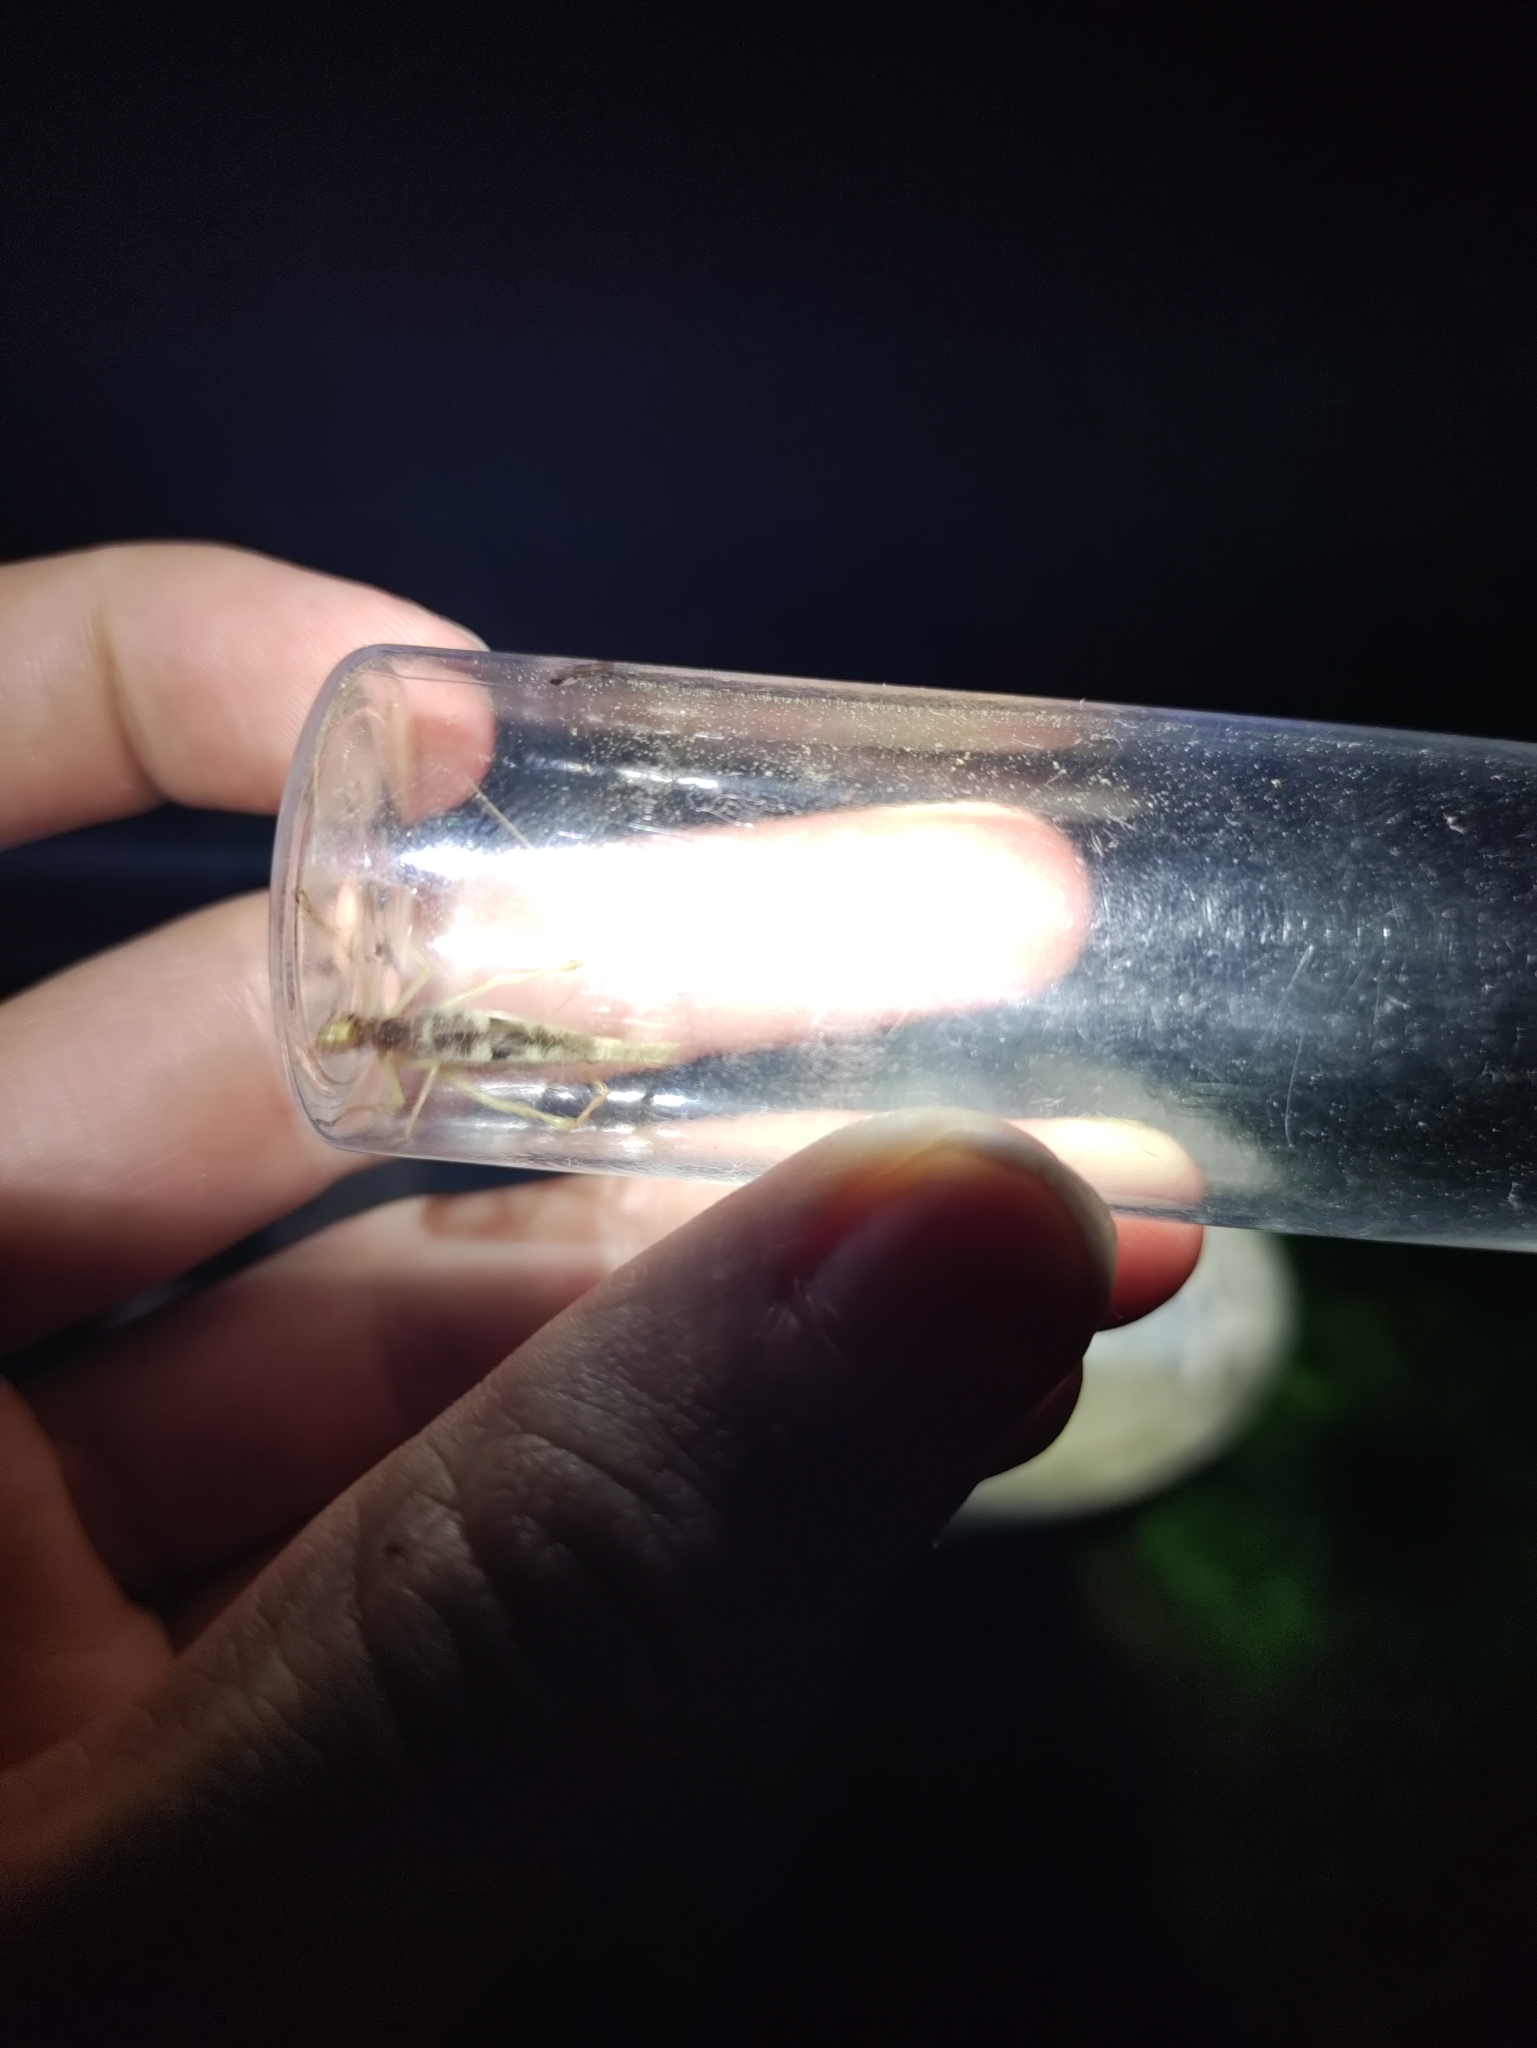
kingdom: Animalia
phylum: Arthropoda
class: Insecta
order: Orthoptera
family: Gryllidae
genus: Neoxabea
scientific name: Neoxabea bipunctata
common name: Two-spotted tree cricket
